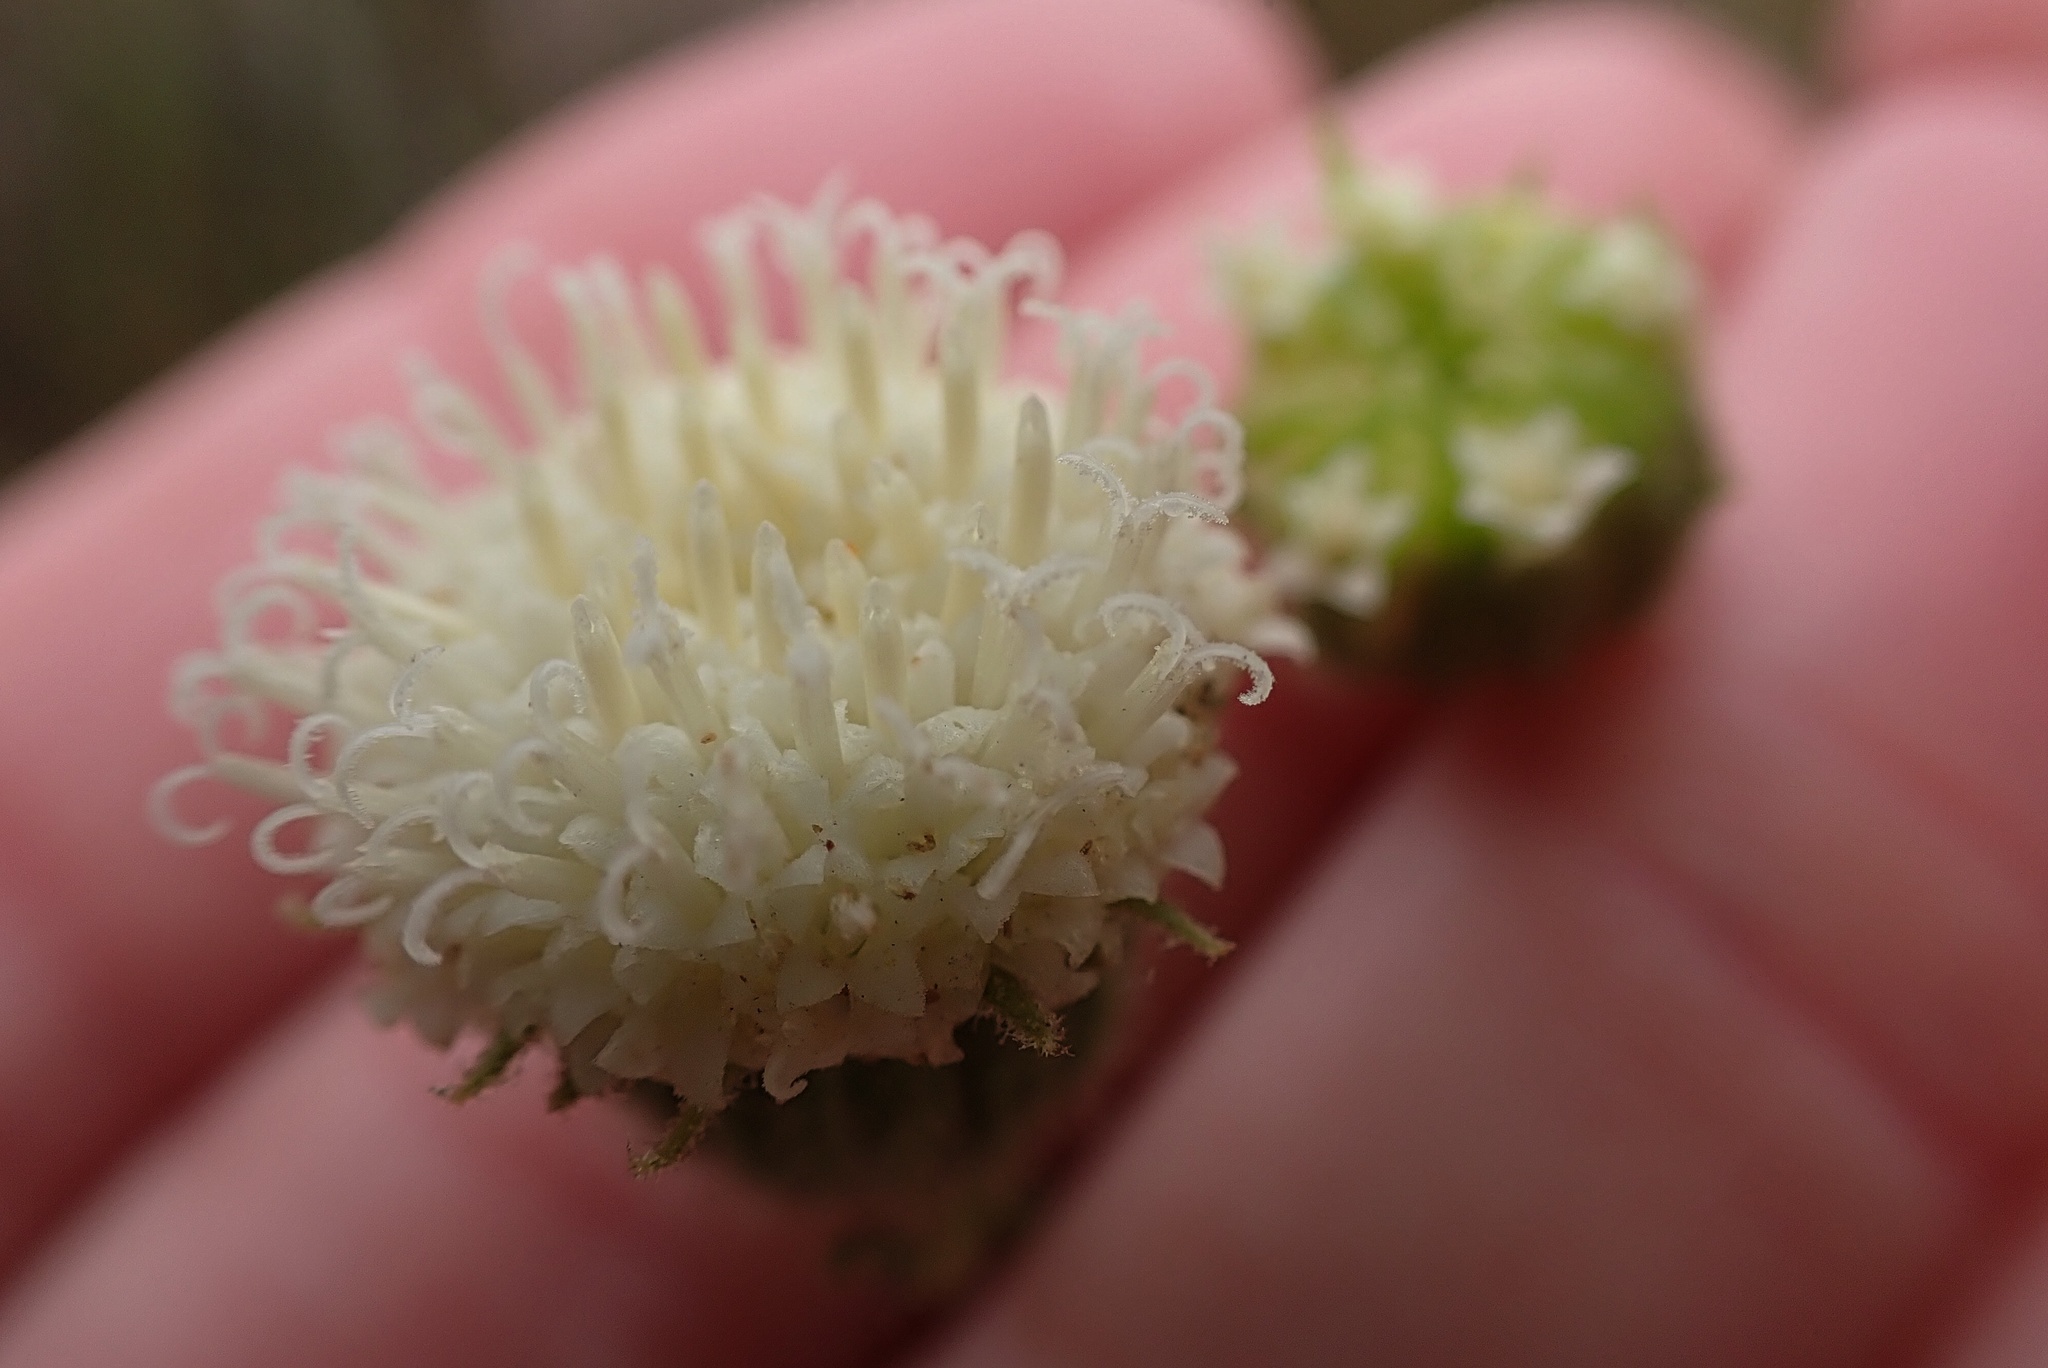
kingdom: Plantae
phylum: Tracheophyta
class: Magnoliopsida
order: Asterales
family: Asteraceae
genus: Chaenactis
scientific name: Chaenactis artemisiifolia
